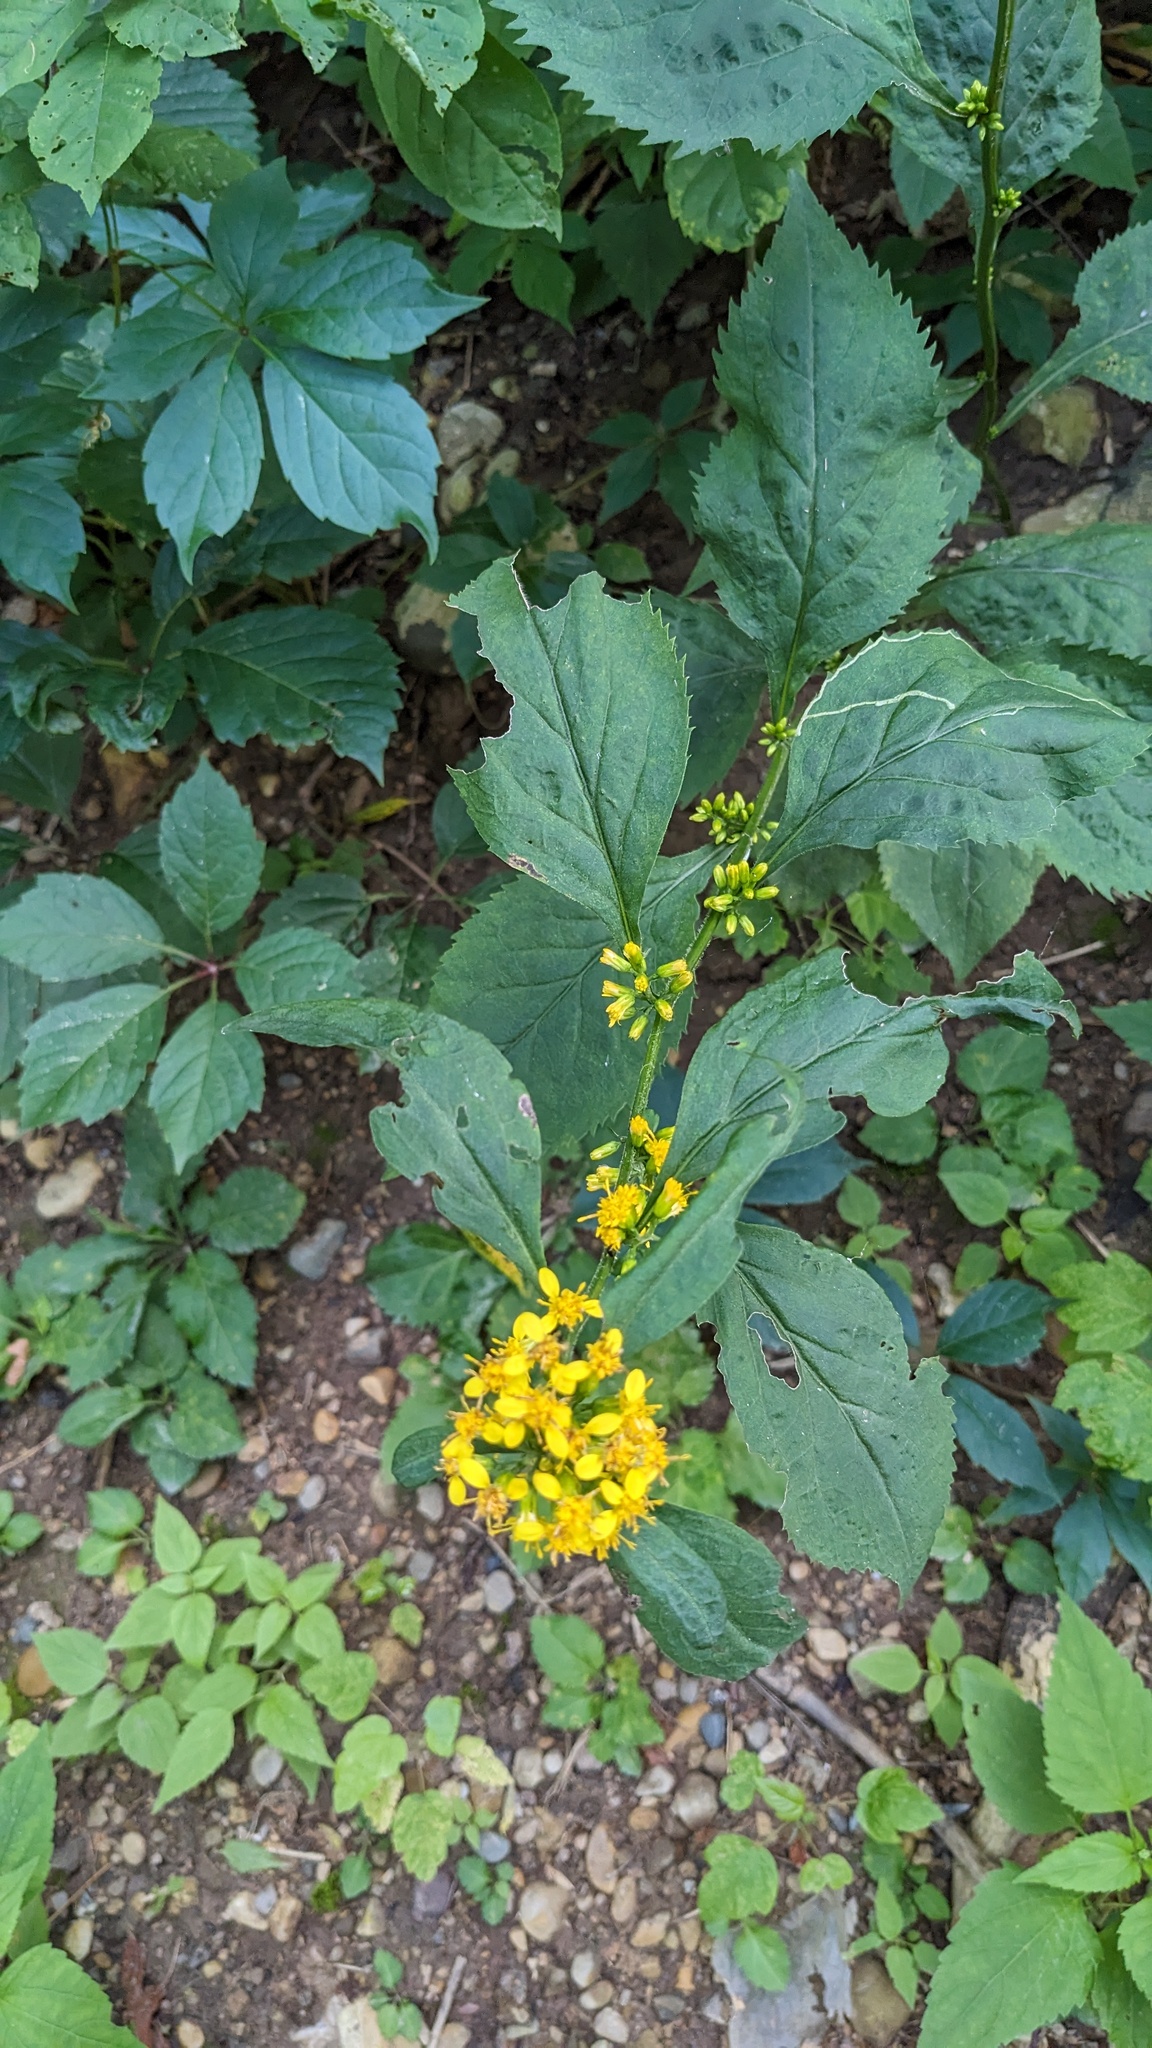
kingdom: Plantae
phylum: Tracheophyta
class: Magnoliopsida
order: Asterales
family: Asteraceae
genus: Solidago
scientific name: Solidago flexicaulis
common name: Zig-zag goldenrod
